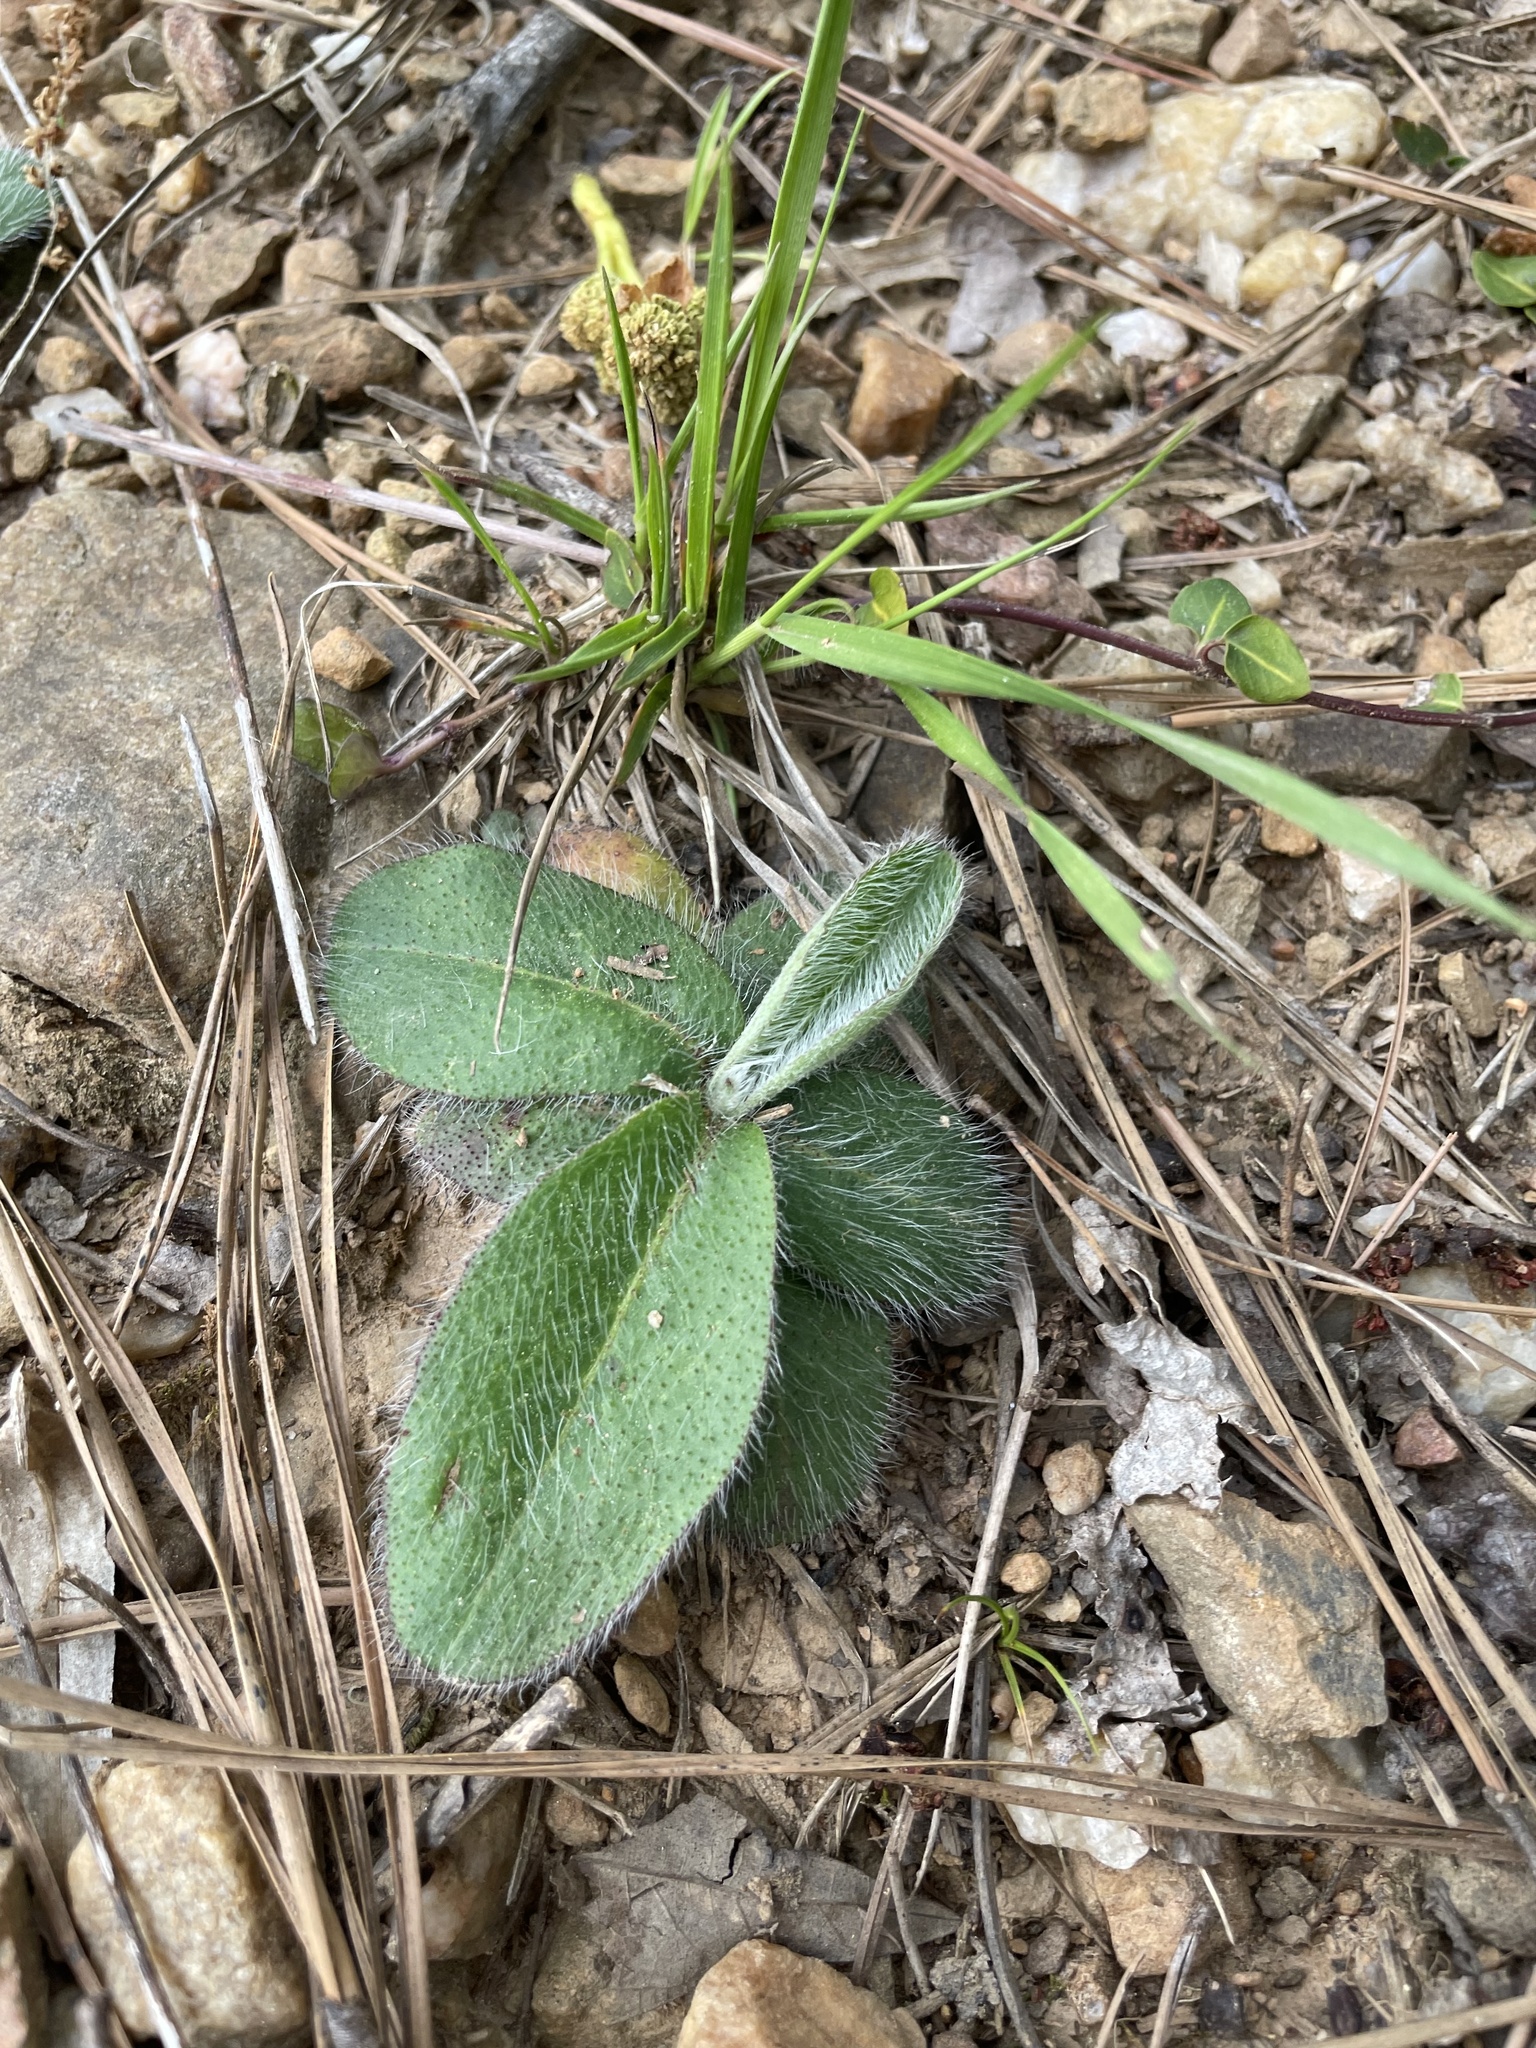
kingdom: Plantae
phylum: Tracheophyta
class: Magnoliopsida
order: Asterales
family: Asteraceae
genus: Hieracium
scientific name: Hieracium gronovii
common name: Beaked hawkweed
